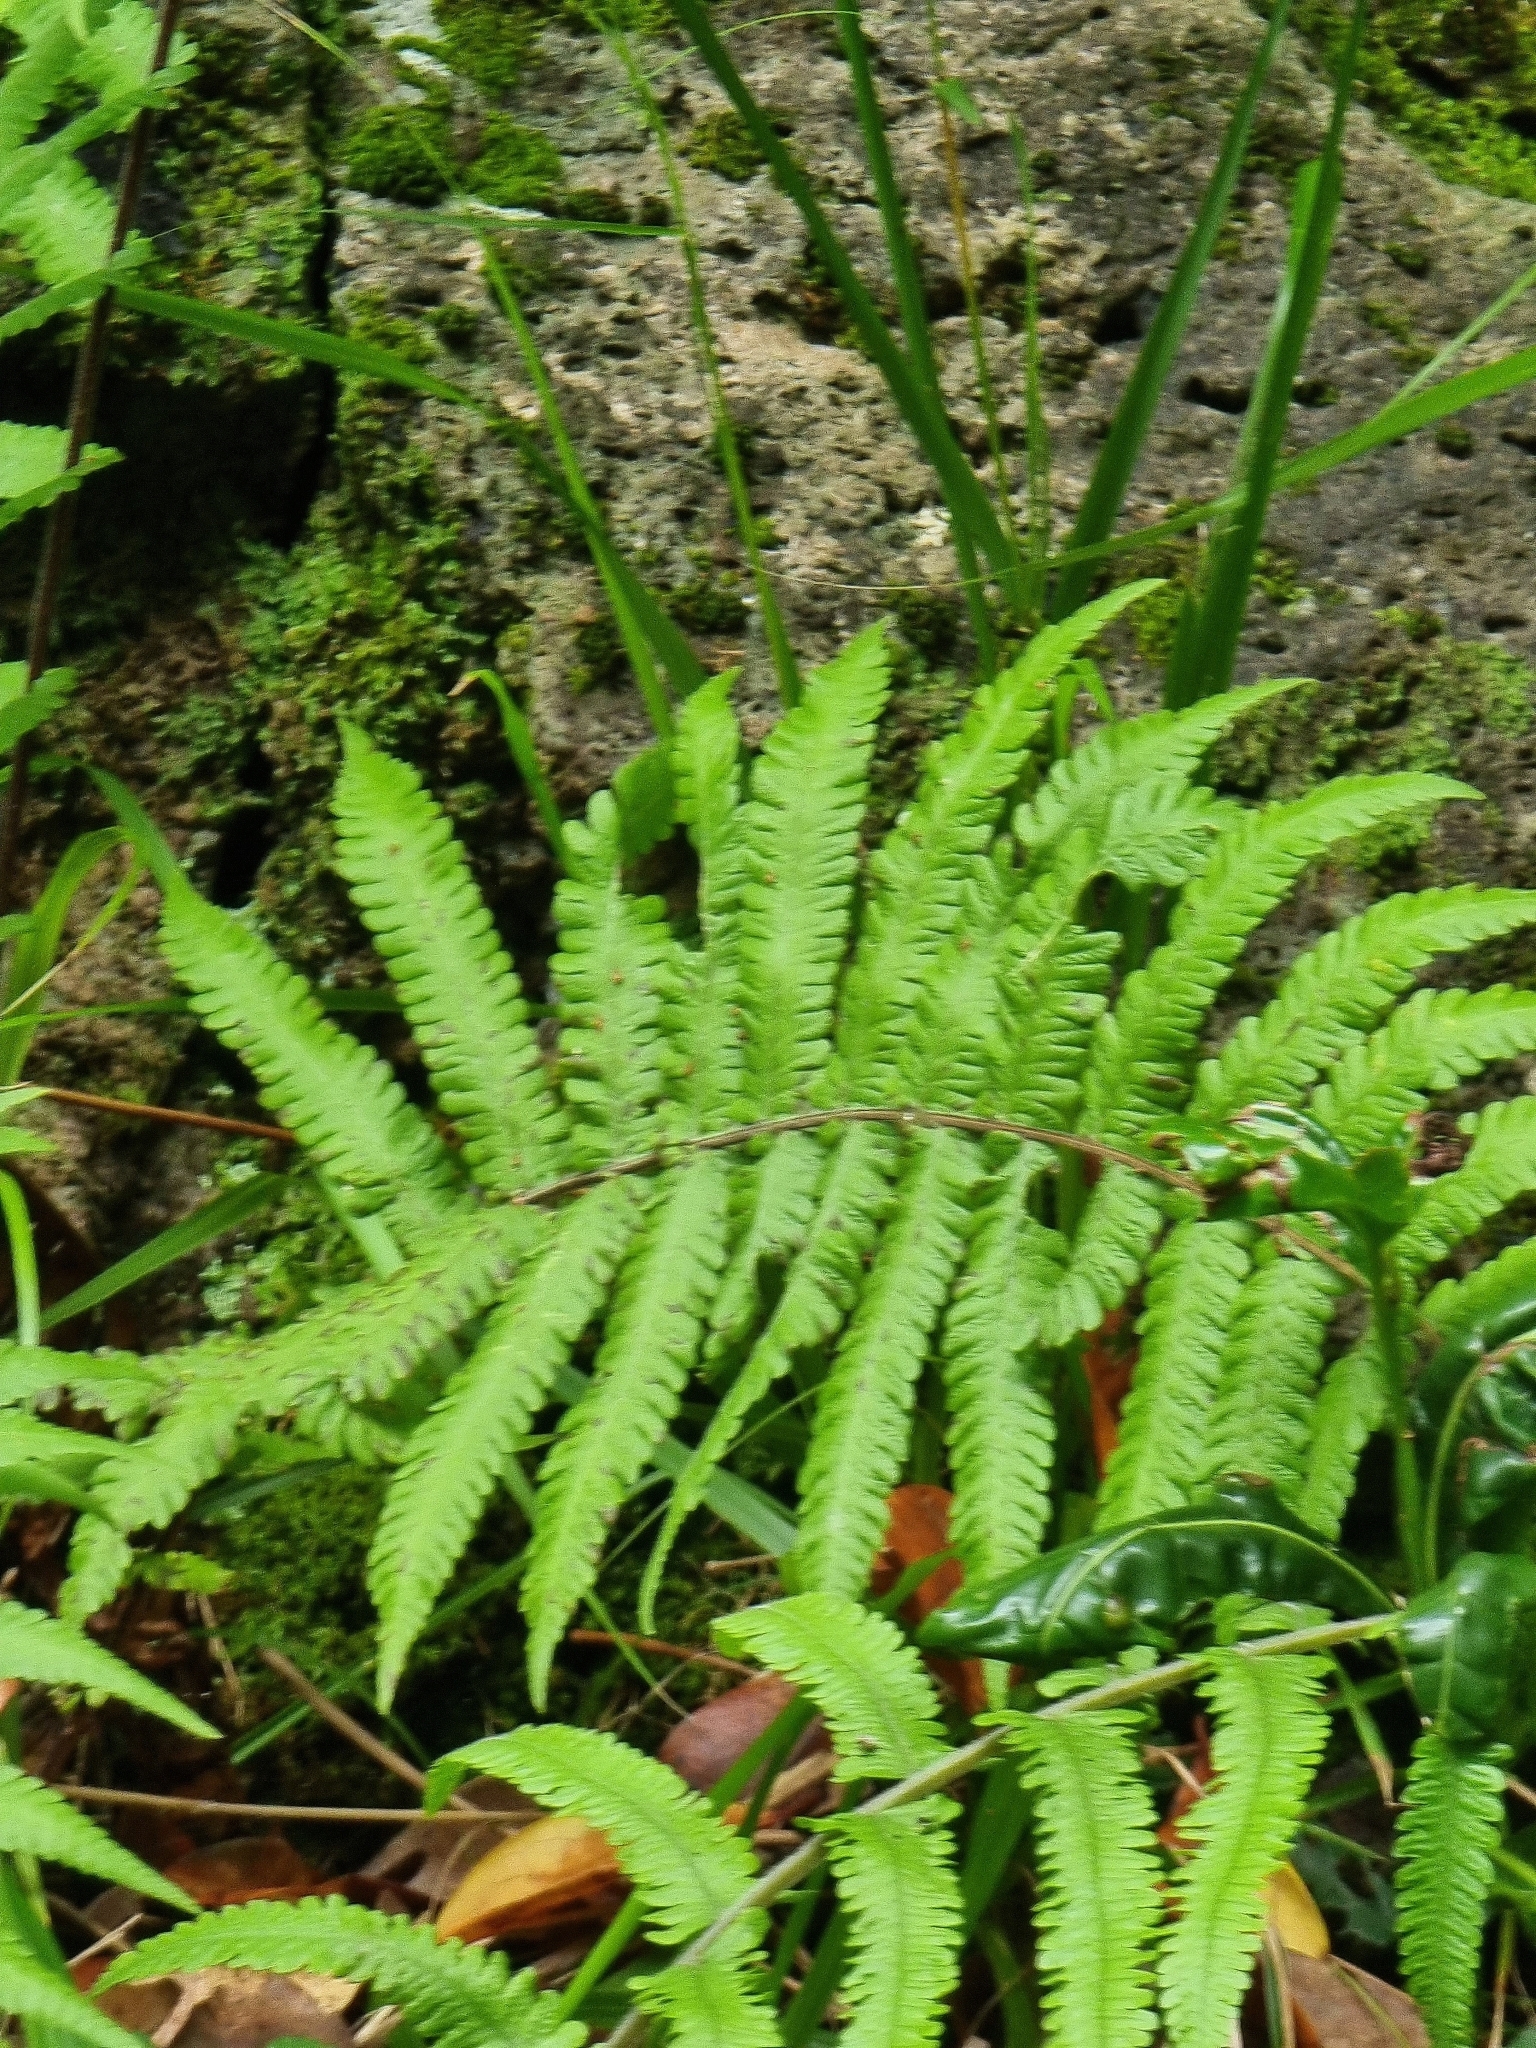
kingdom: Plantae
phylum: Tracheophyta
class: Polypodiopsida
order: Polypodiales
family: Thelypteridaceae
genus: Christella
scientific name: Christella dentata
